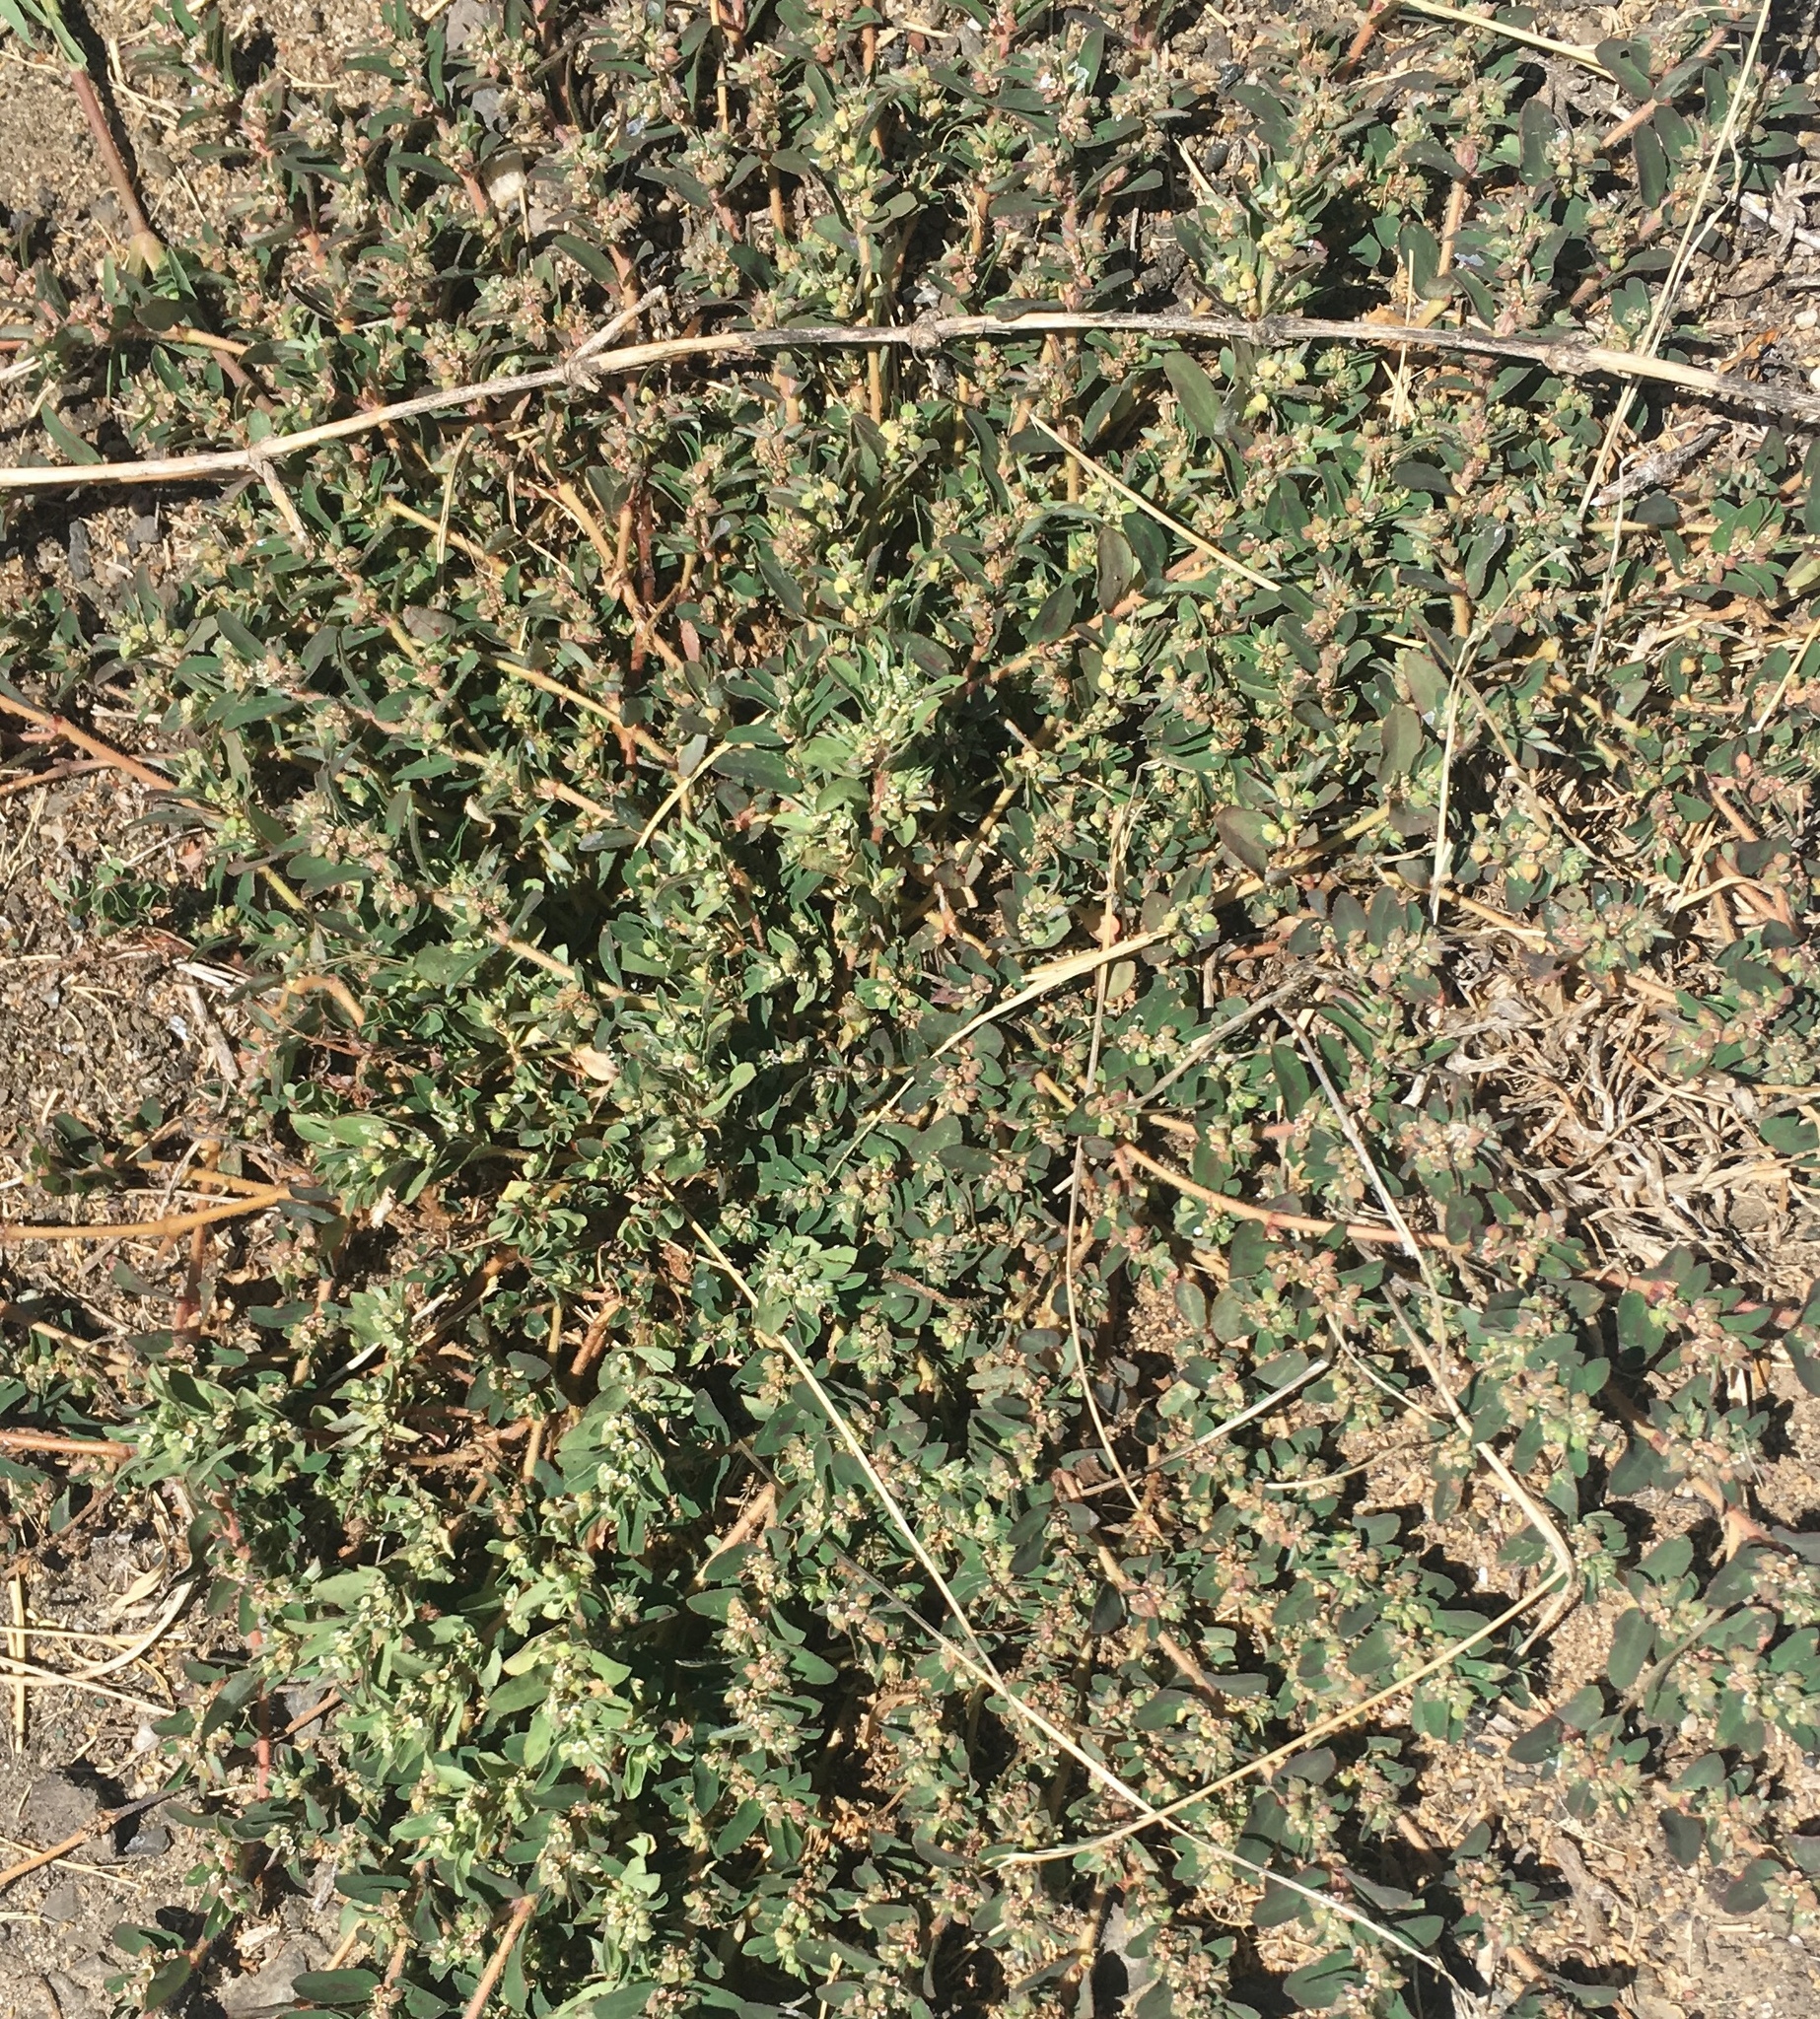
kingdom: Plantae
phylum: Tracheophyta
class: Magnoliopsida
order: Malpighiales
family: Euphorbiaceae
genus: Euphorbia
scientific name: Euphorbia maculata
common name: Spotted spurge
